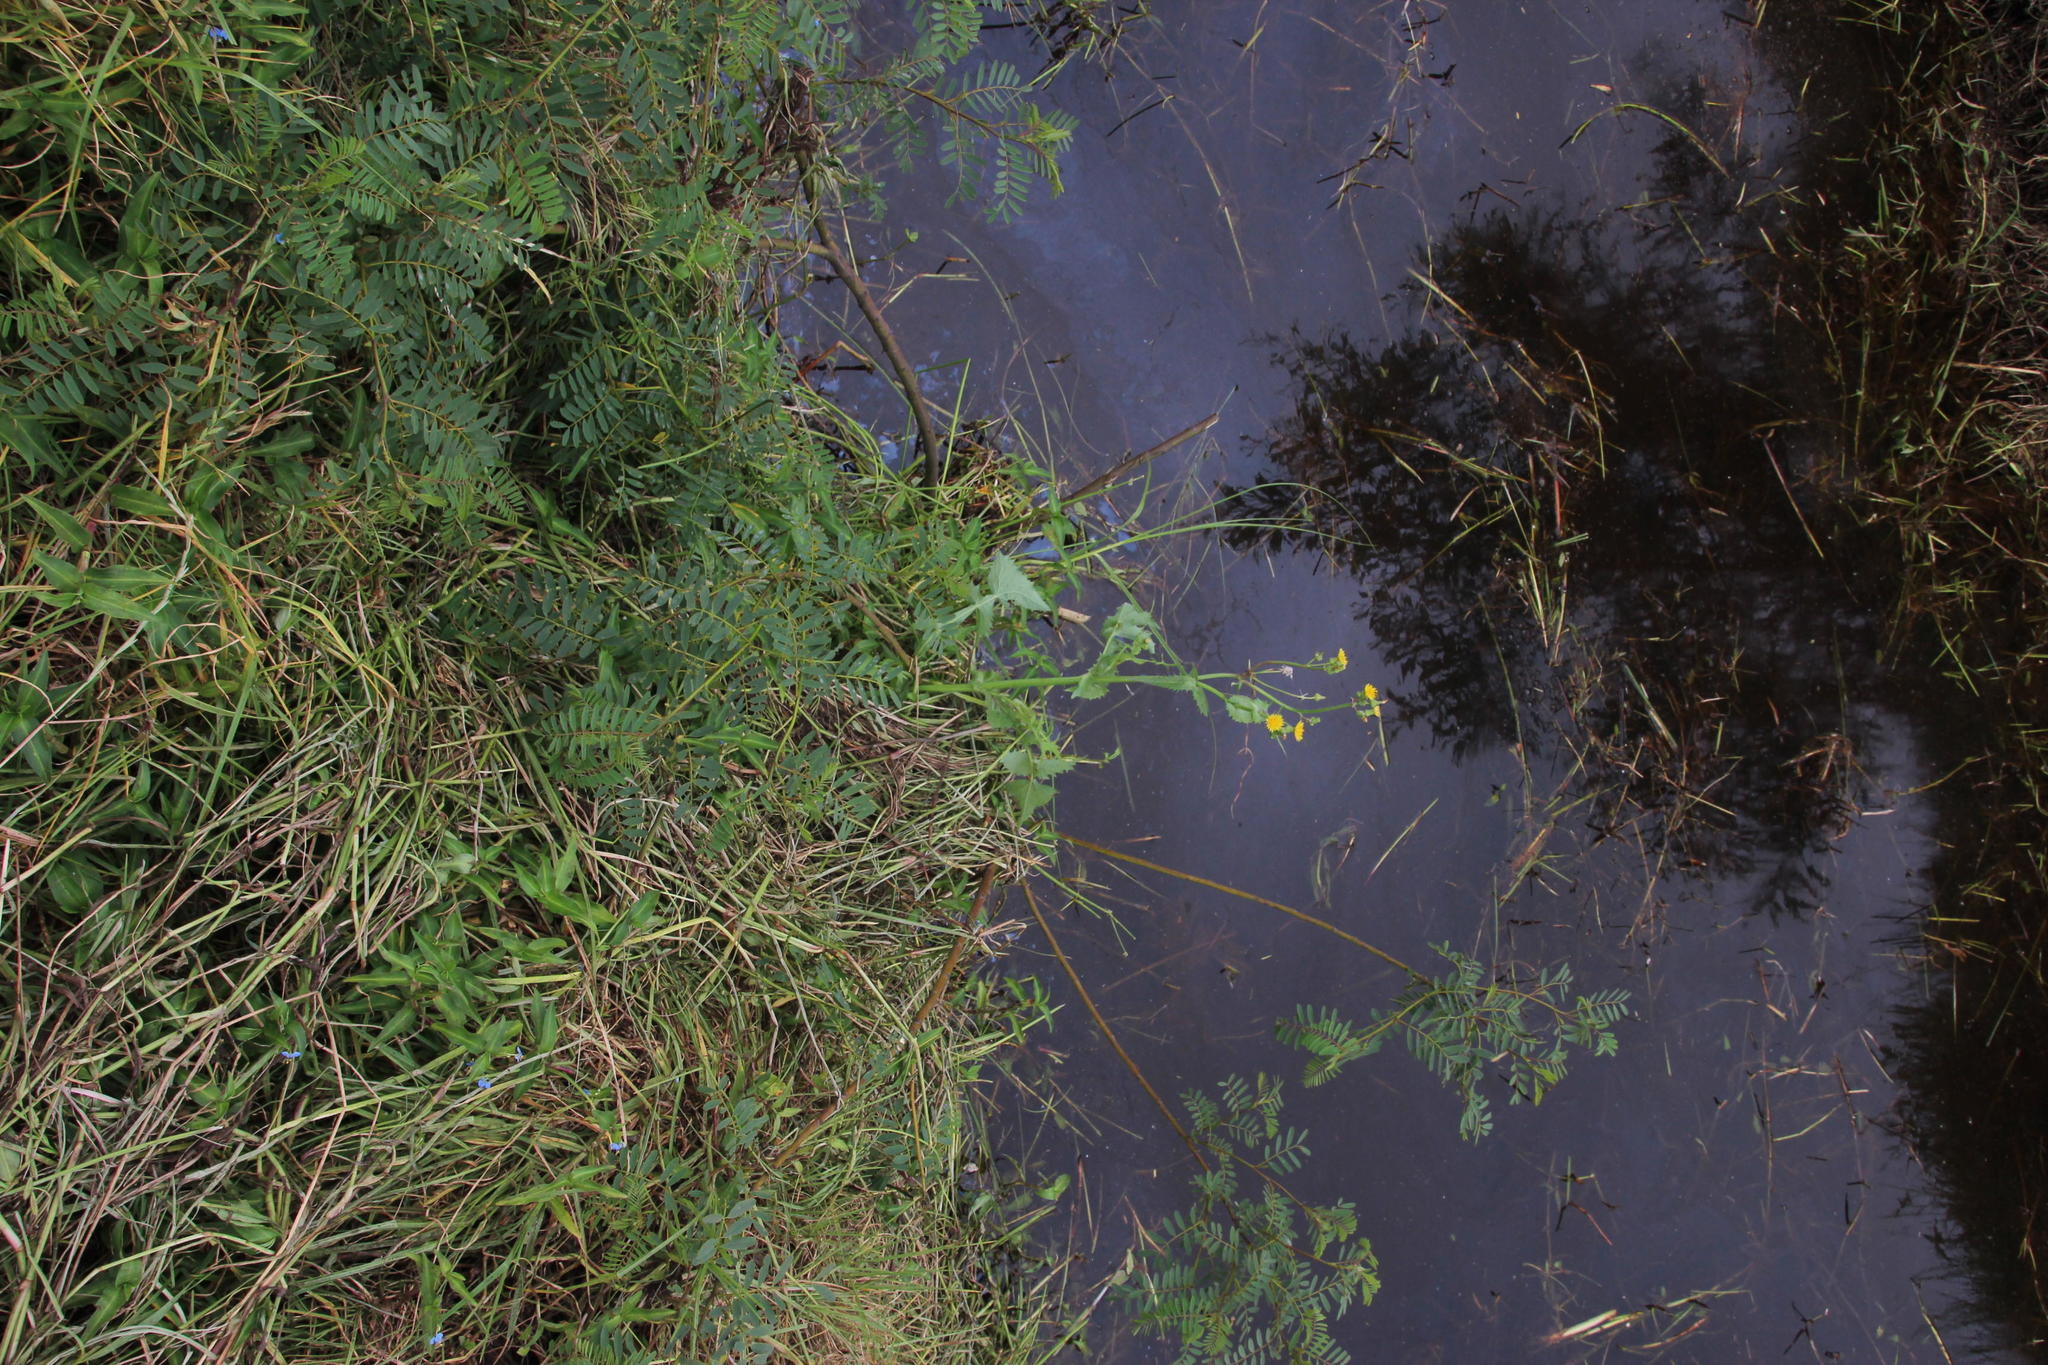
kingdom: Plantae
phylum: Tracheophyta
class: Magnoliopsida
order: Asterales
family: Asteraceae
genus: Sonchus
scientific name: Sonchus oleraceus
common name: Common sowthistle
